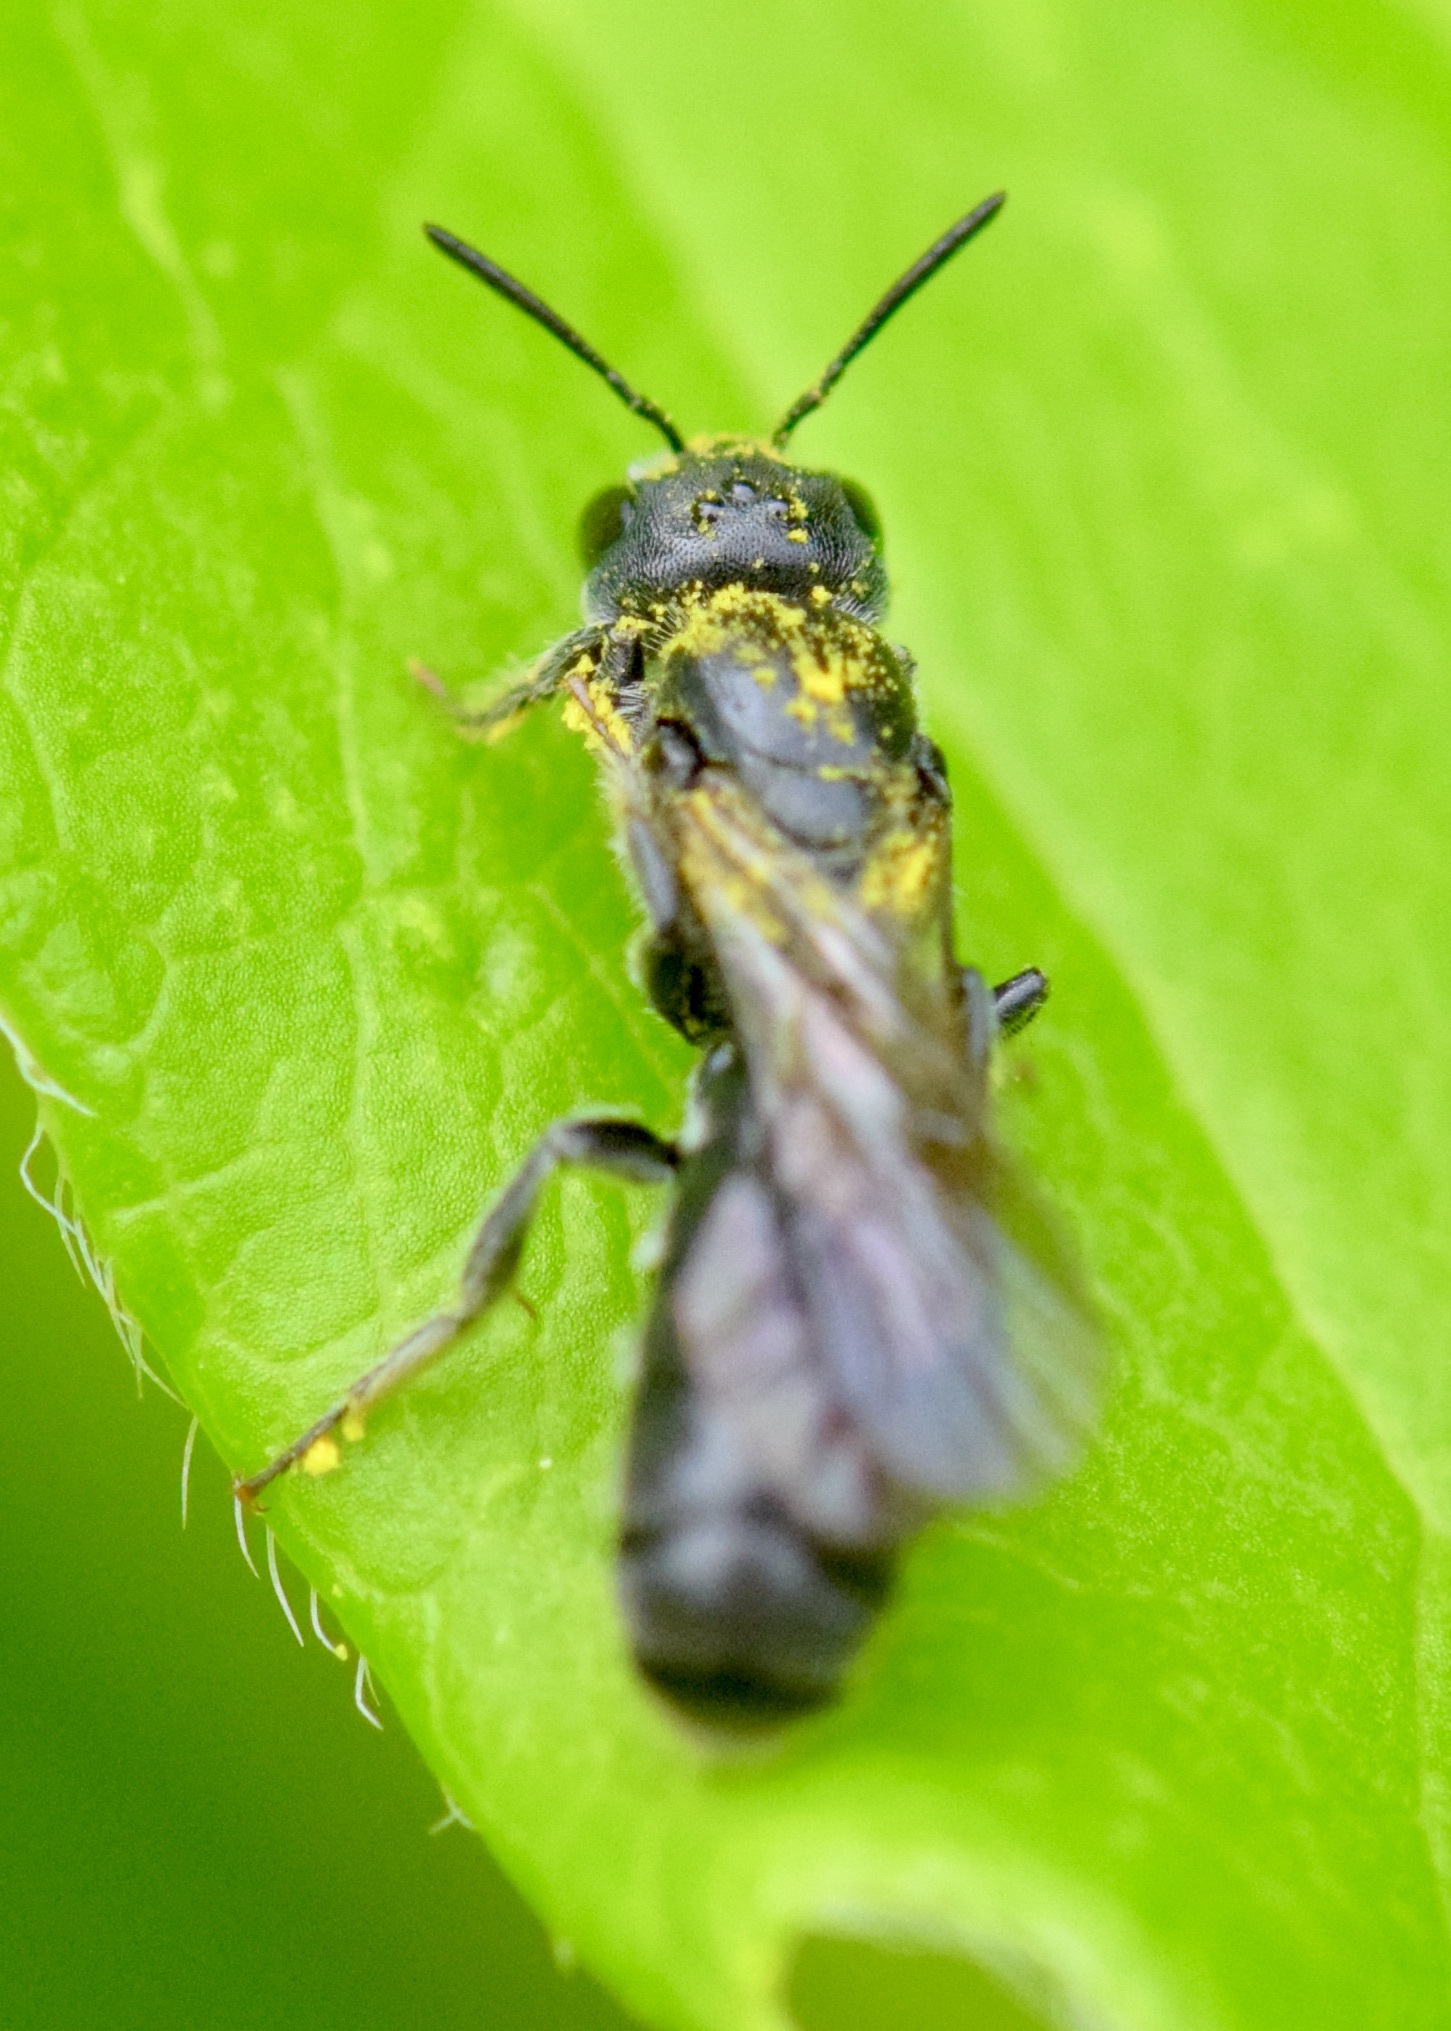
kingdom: Animalia
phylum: Arthropoda
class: Insecta
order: Hymenoptera
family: Megachilidae
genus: Chelostoma
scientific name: Chelostoma philadelphi
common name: Mock-orange scissor bee
